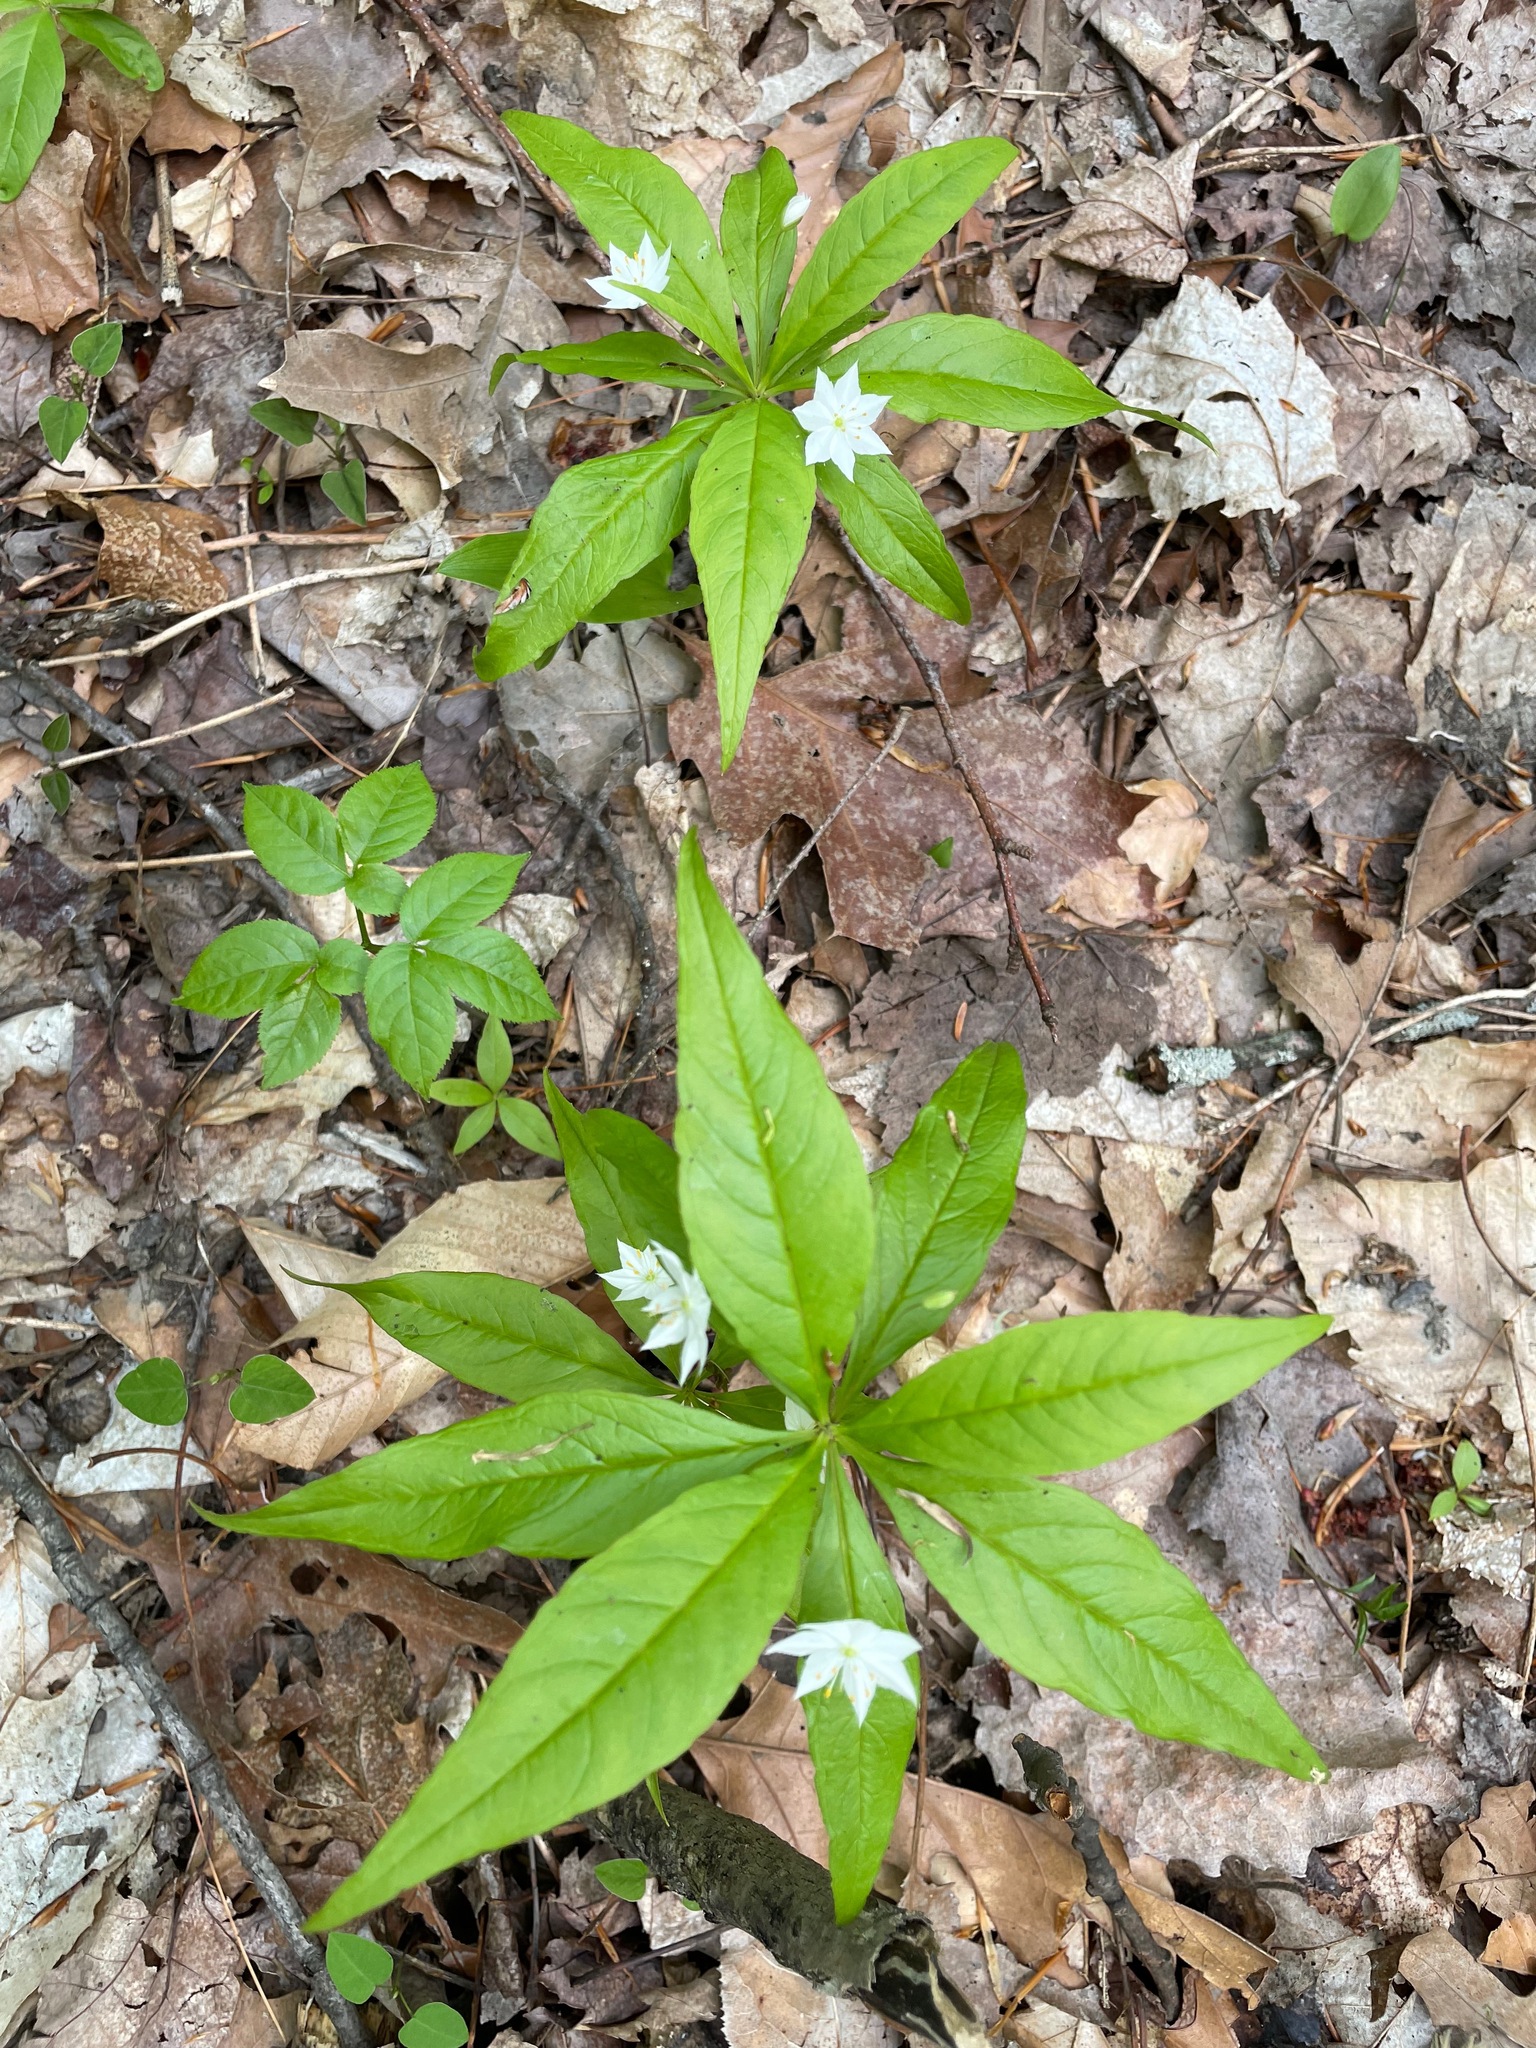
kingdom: Plantae
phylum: Tracheophyta
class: Magnoliopsida
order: Ericales
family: Primulaceae
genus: Lysimachia
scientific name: Lysimachia borealis
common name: American starflower
